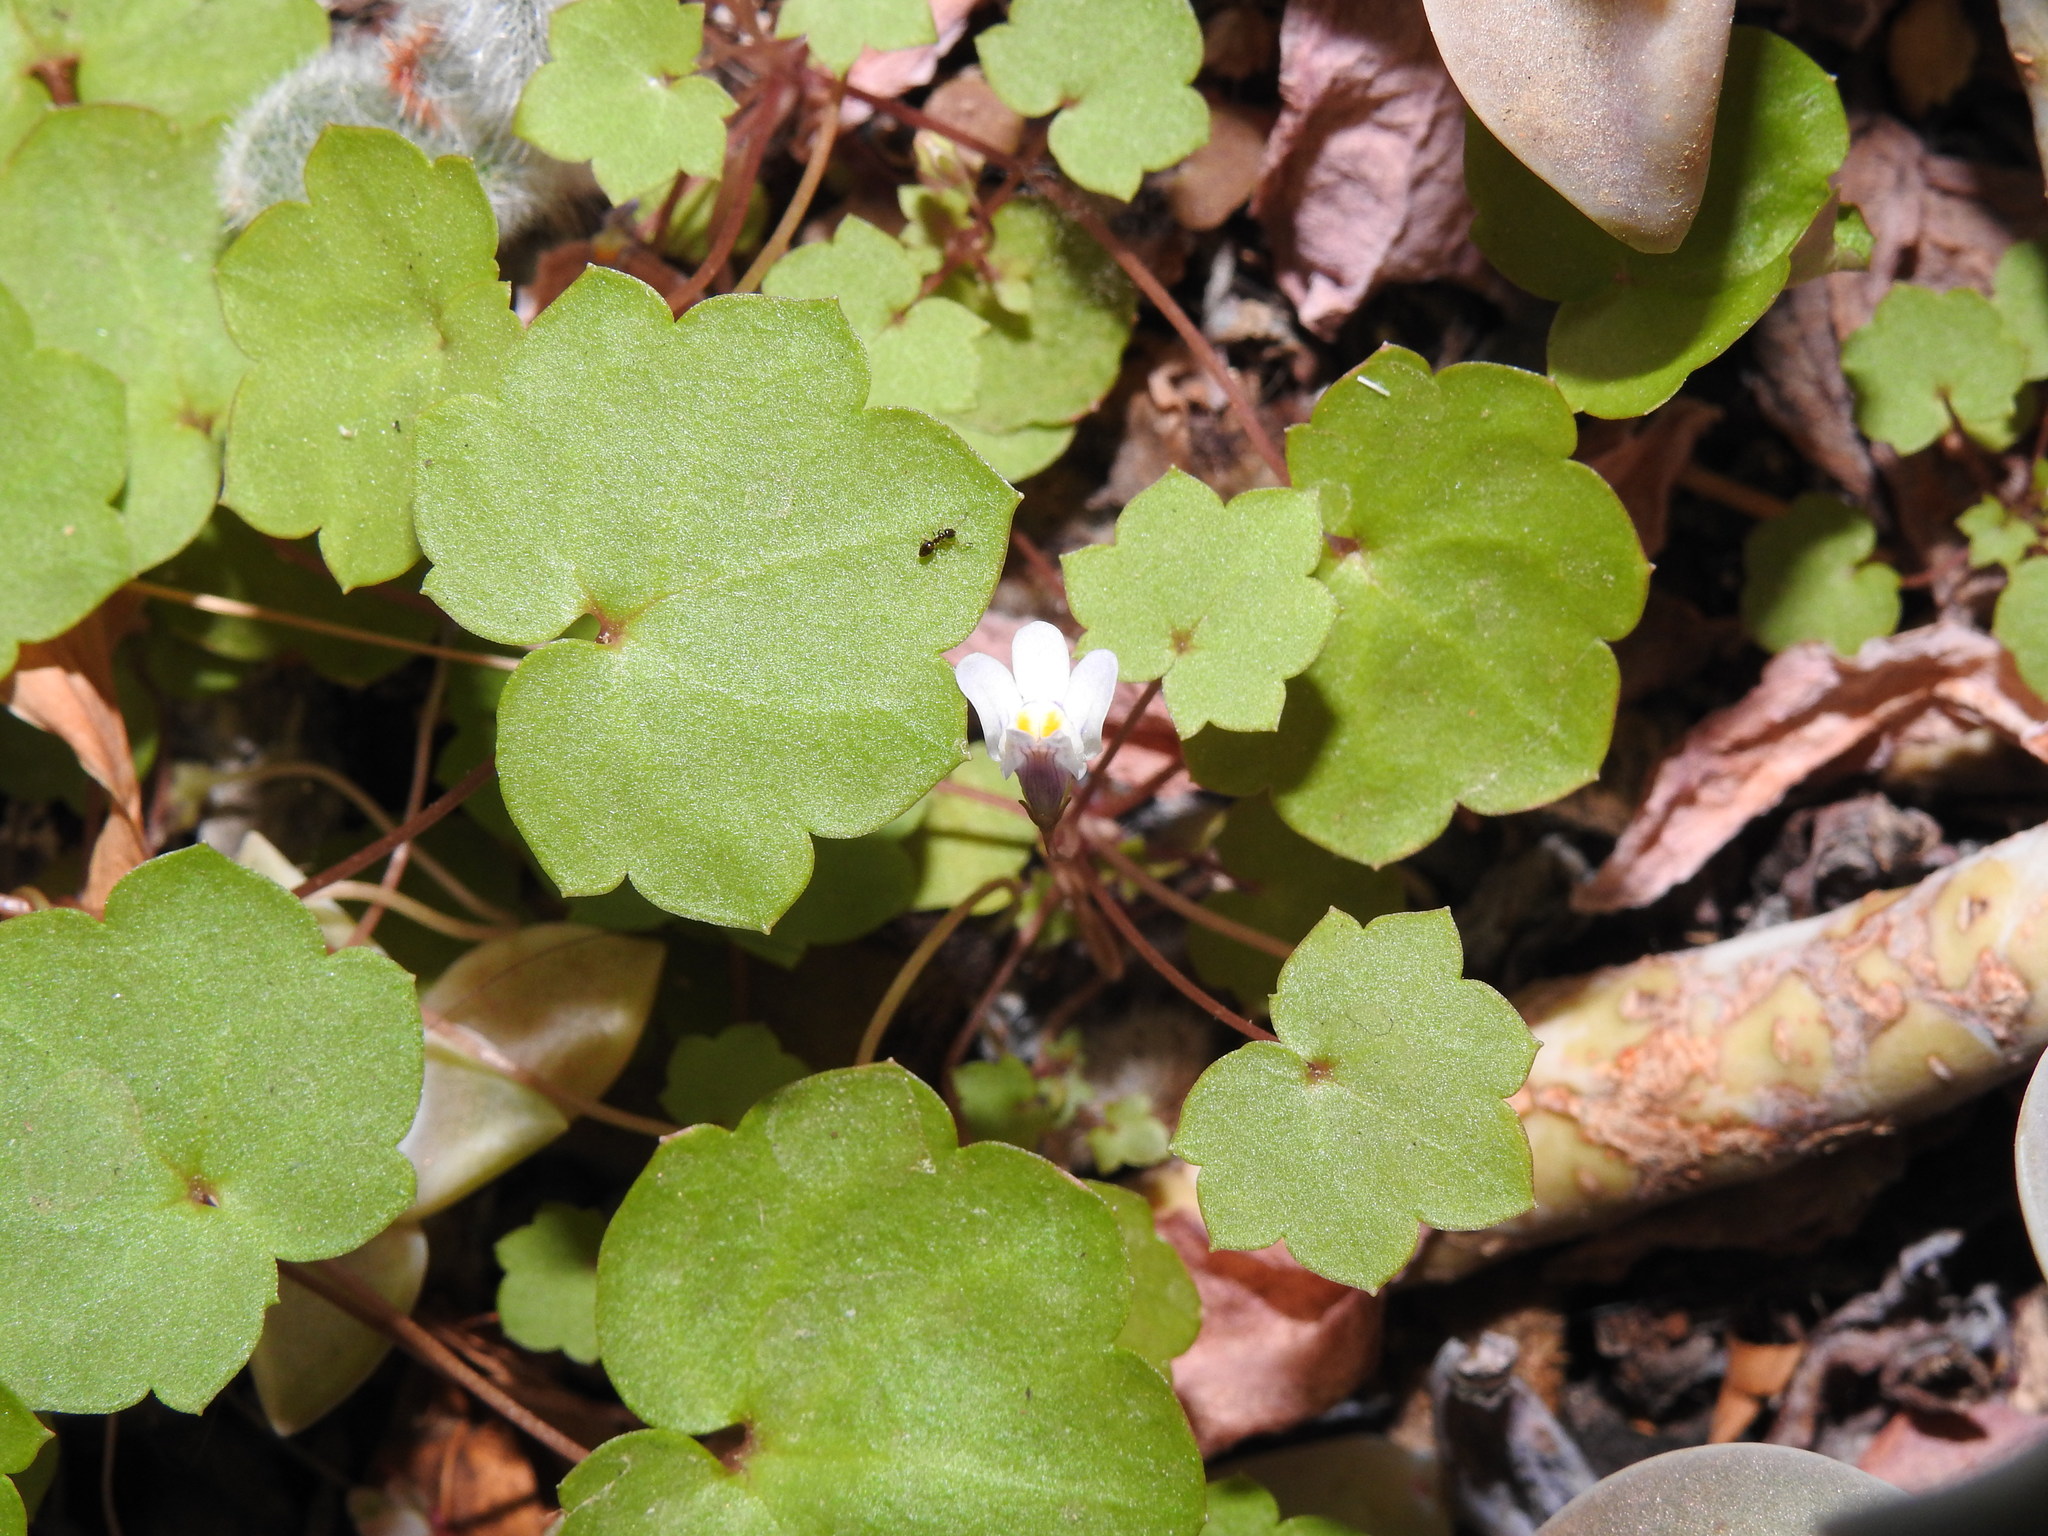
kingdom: Plantae
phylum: Tracheophyta
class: Magnoliopsida
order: Lamiales
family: Plantaginaceae
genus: Cymbalaria
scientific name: Cymbalaria muralis
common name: Ivy-leaved toadflax
